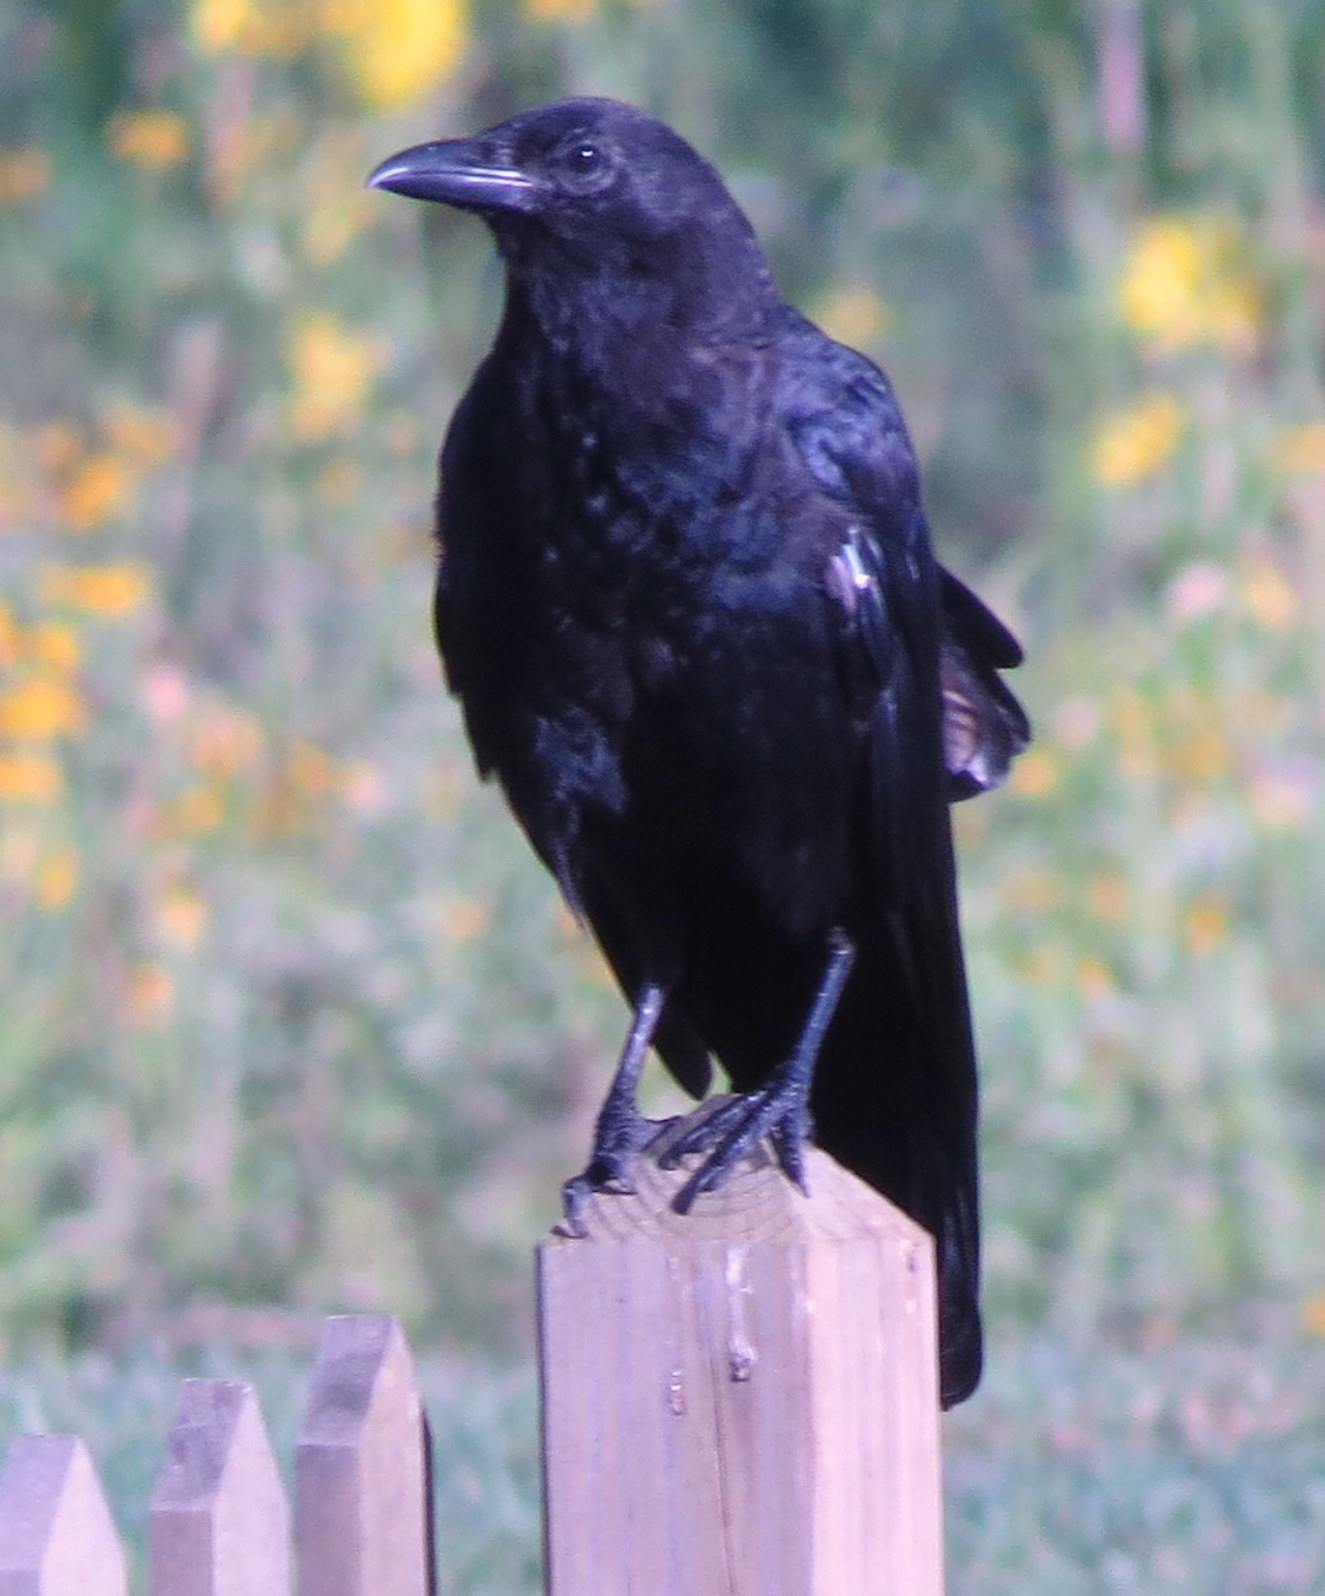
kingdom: Animalia
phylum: Chordata
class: Aves
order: Passeriformes
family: Corvidae
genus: Corvus
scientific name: Corvus brachyrhynchos
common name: American crow
